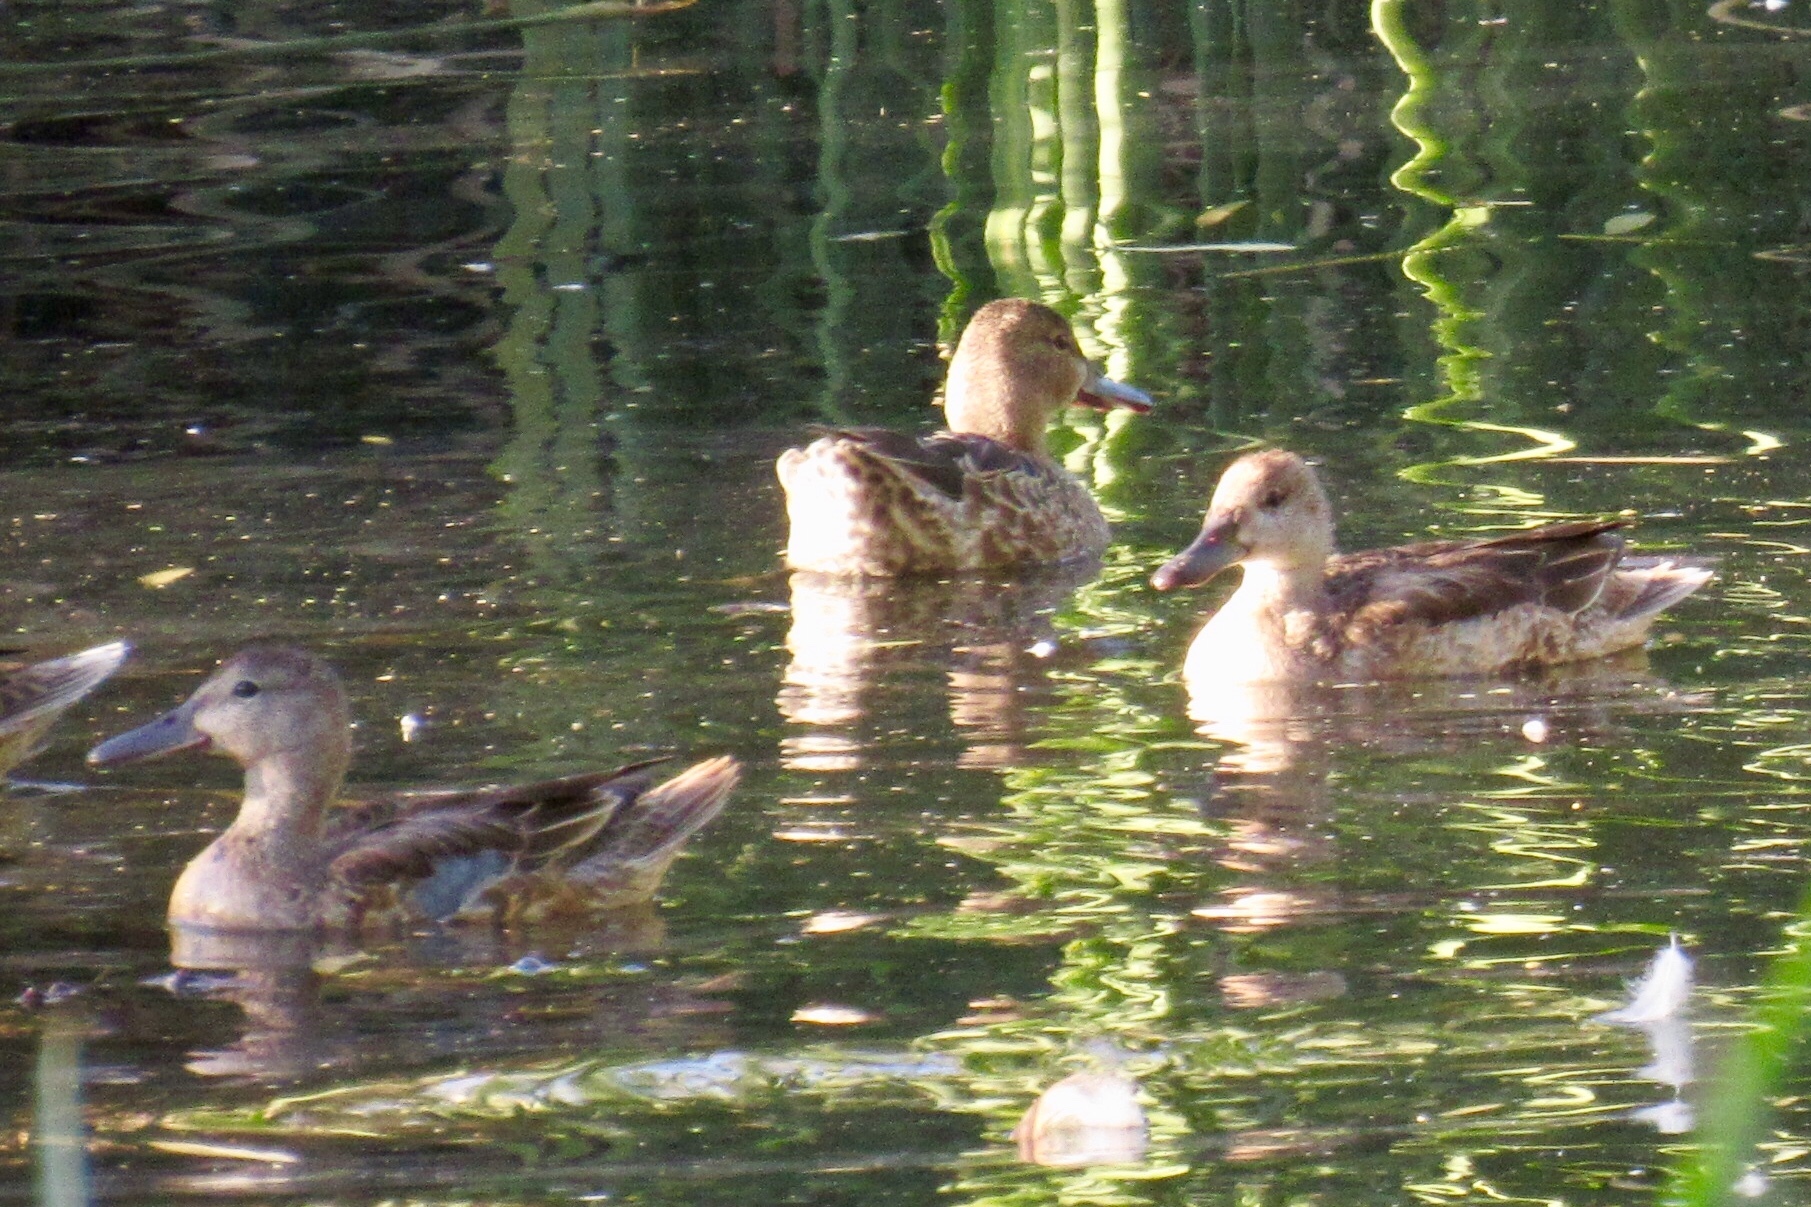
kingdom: Animalia
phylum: Chordata
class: Aves
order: Anseriformes
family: Anatidae
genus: Spatula
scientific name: Spatula cyanoptera
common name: Cinnamon teal
